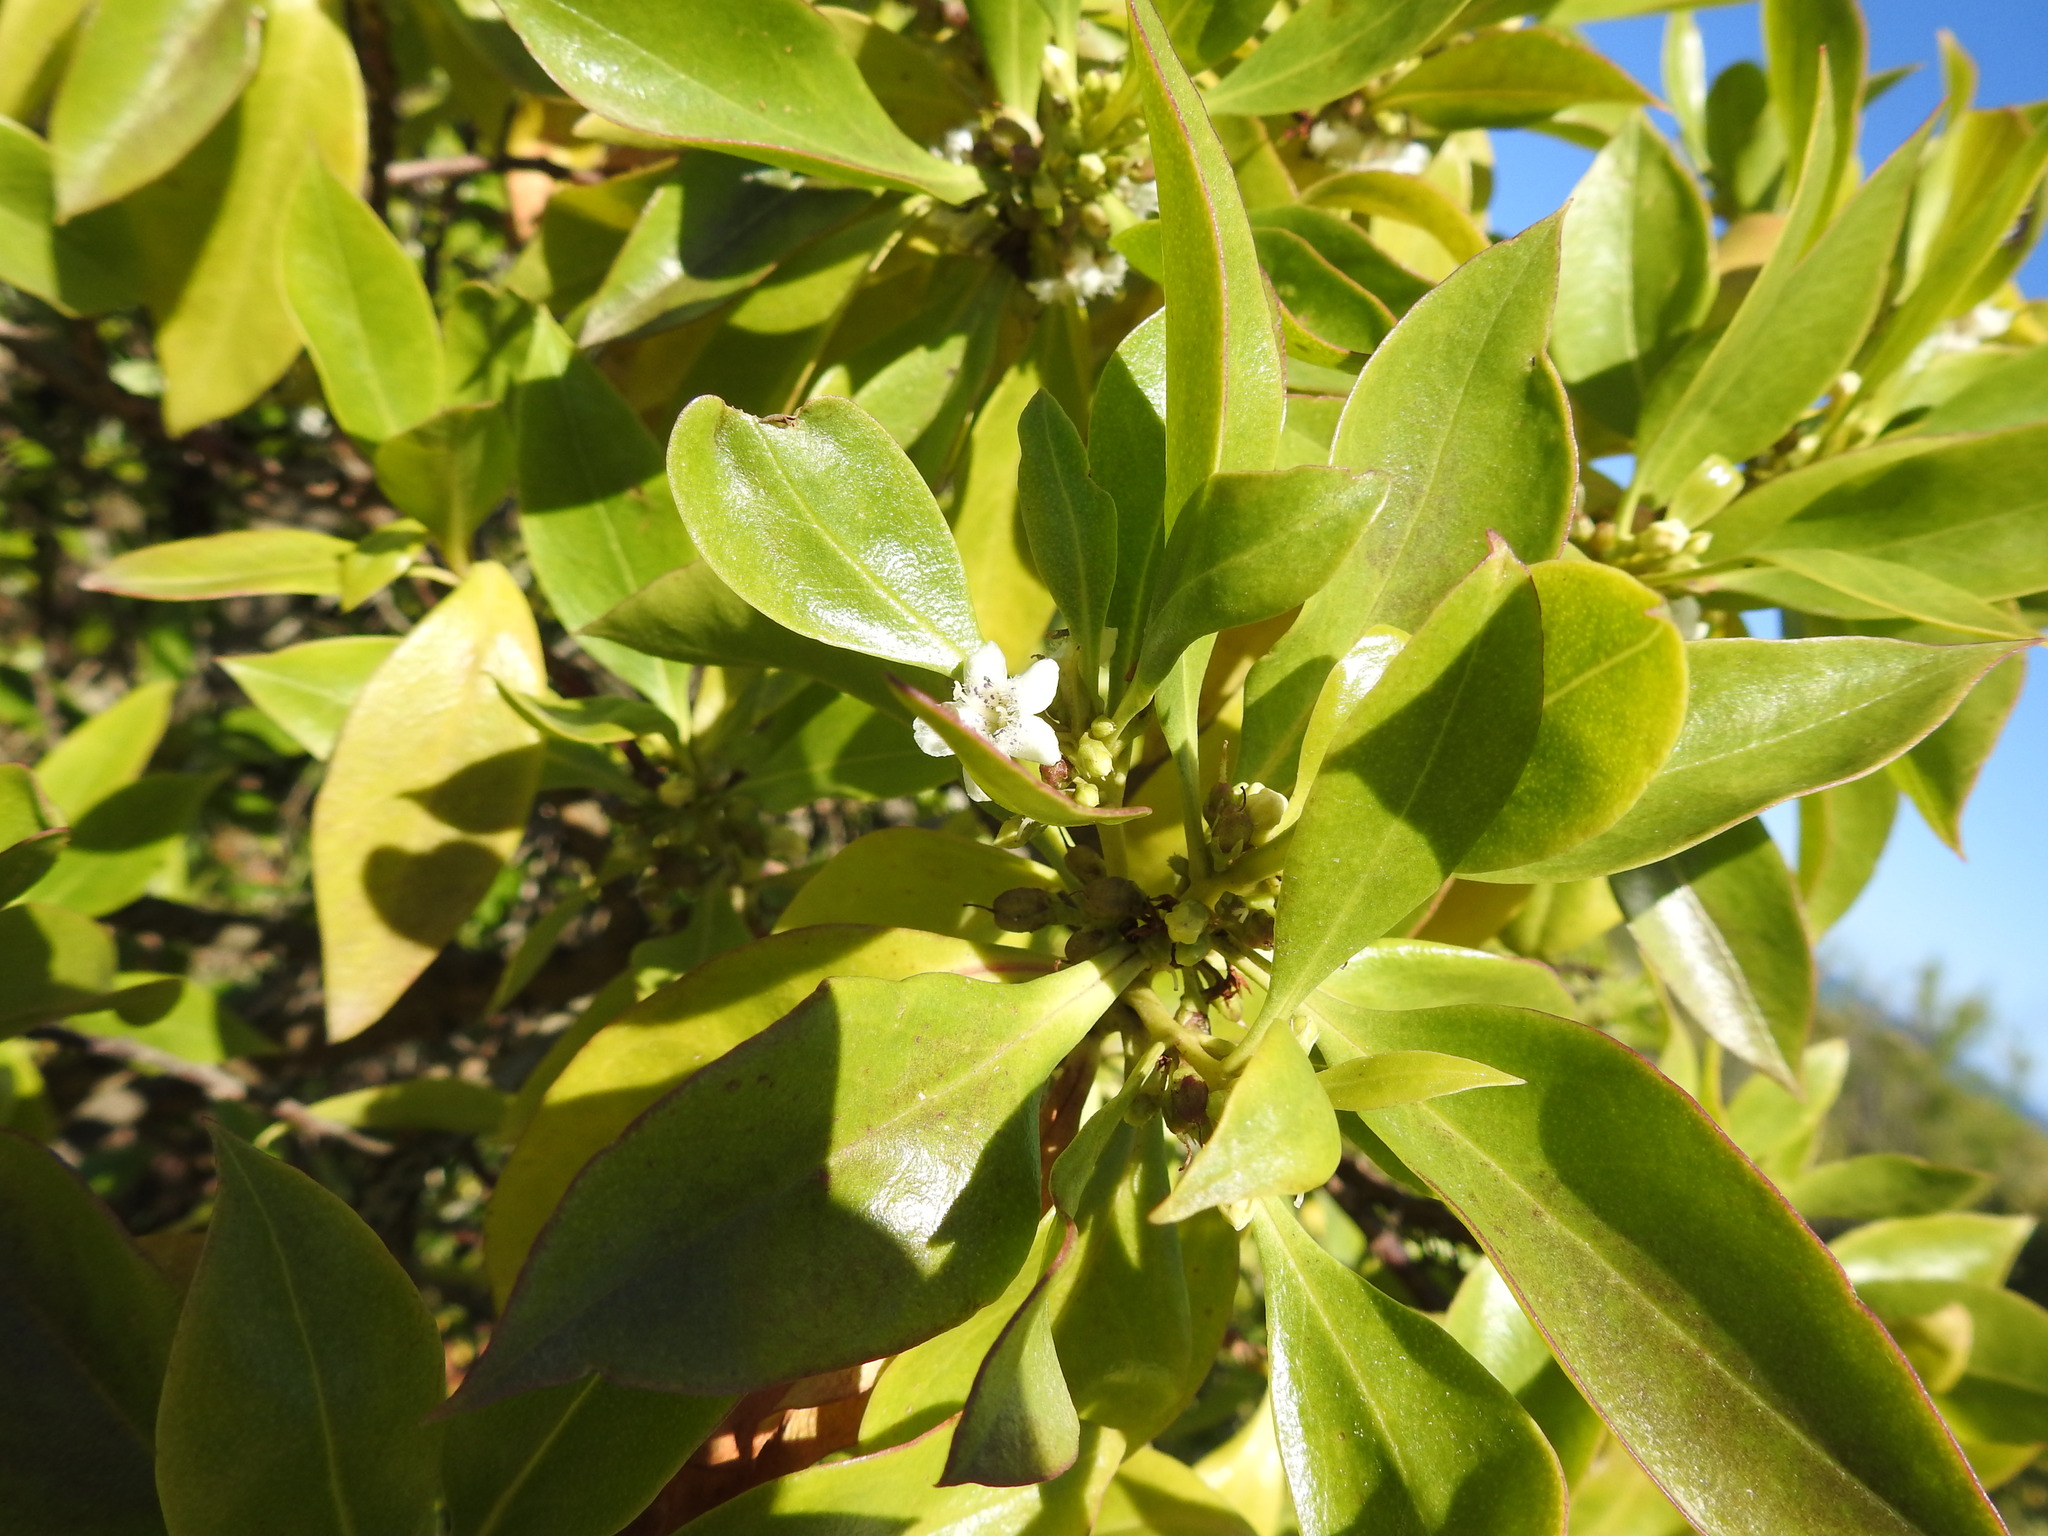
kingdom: Plantae
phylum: Tracheophyta
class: Magnoliopsida
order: Lamiales
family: Scrophulariaceae
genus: Myoporum
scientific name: Myoporum laetum
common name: Ngaio tree
